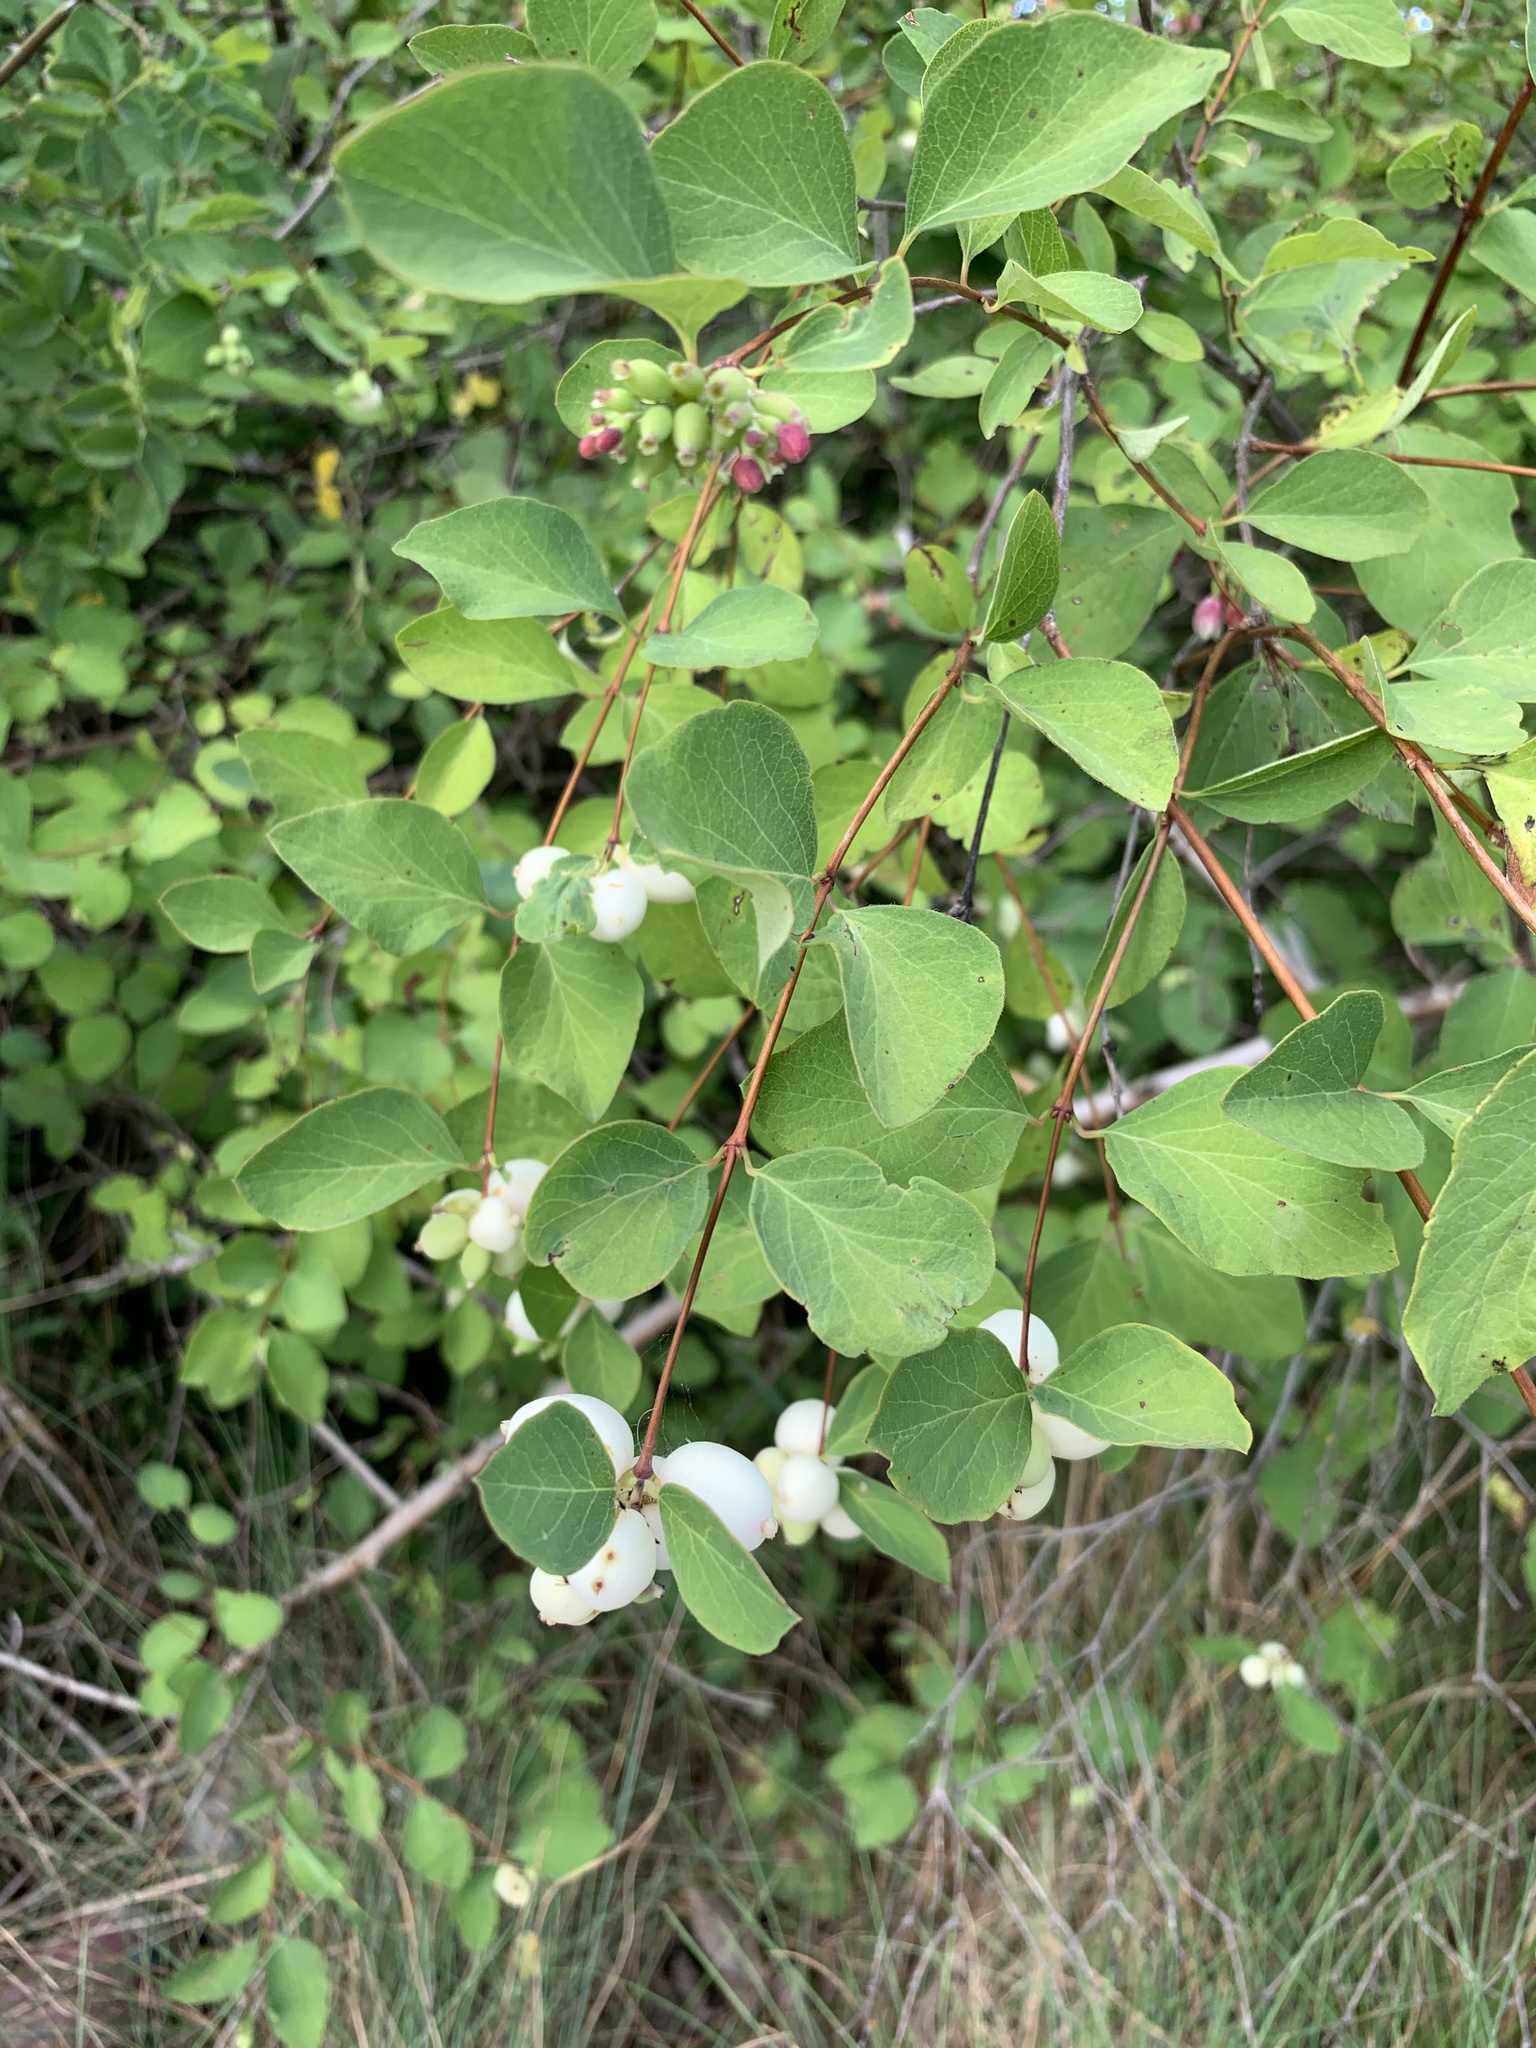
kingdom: Plantae
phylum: Tracheophyta
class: Magnoliopsida
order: Dipsacales
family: Caprifoliaceae
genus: Symphoricarpos
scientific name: Symphoricarpos albus
